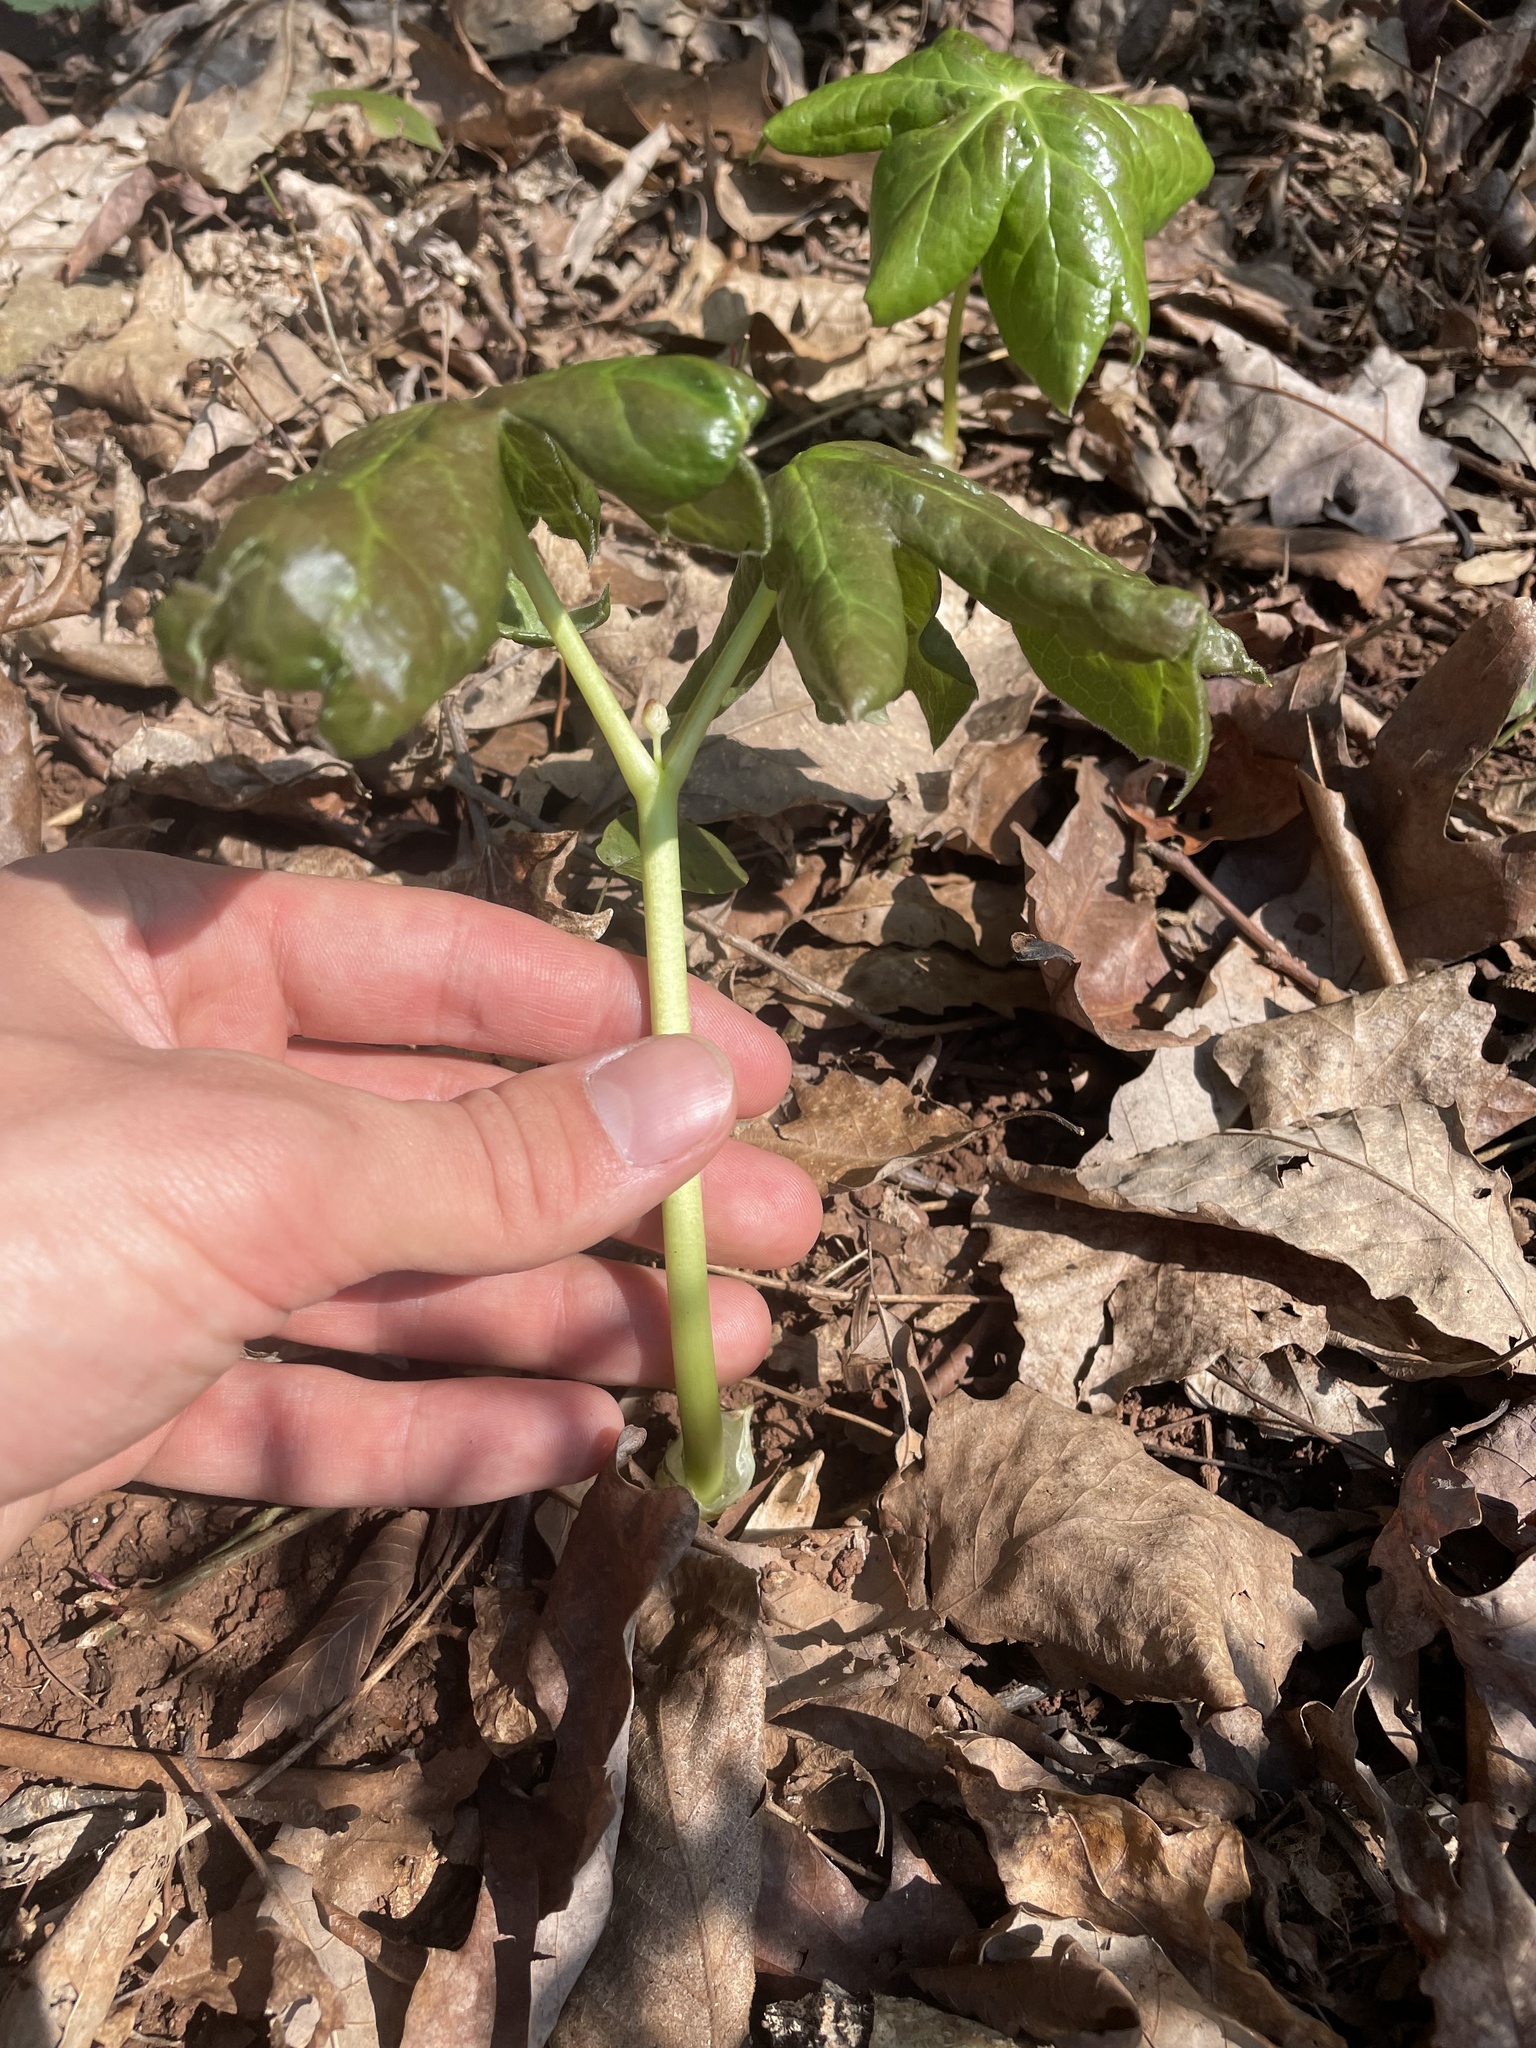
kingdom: Plantae
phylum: Tracheophyta
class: Magnoliopsida
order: Ranunculales
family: Berberidaceae
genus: Podophyllum
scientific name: Podophyllum peltatum
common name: Wild mandrake
